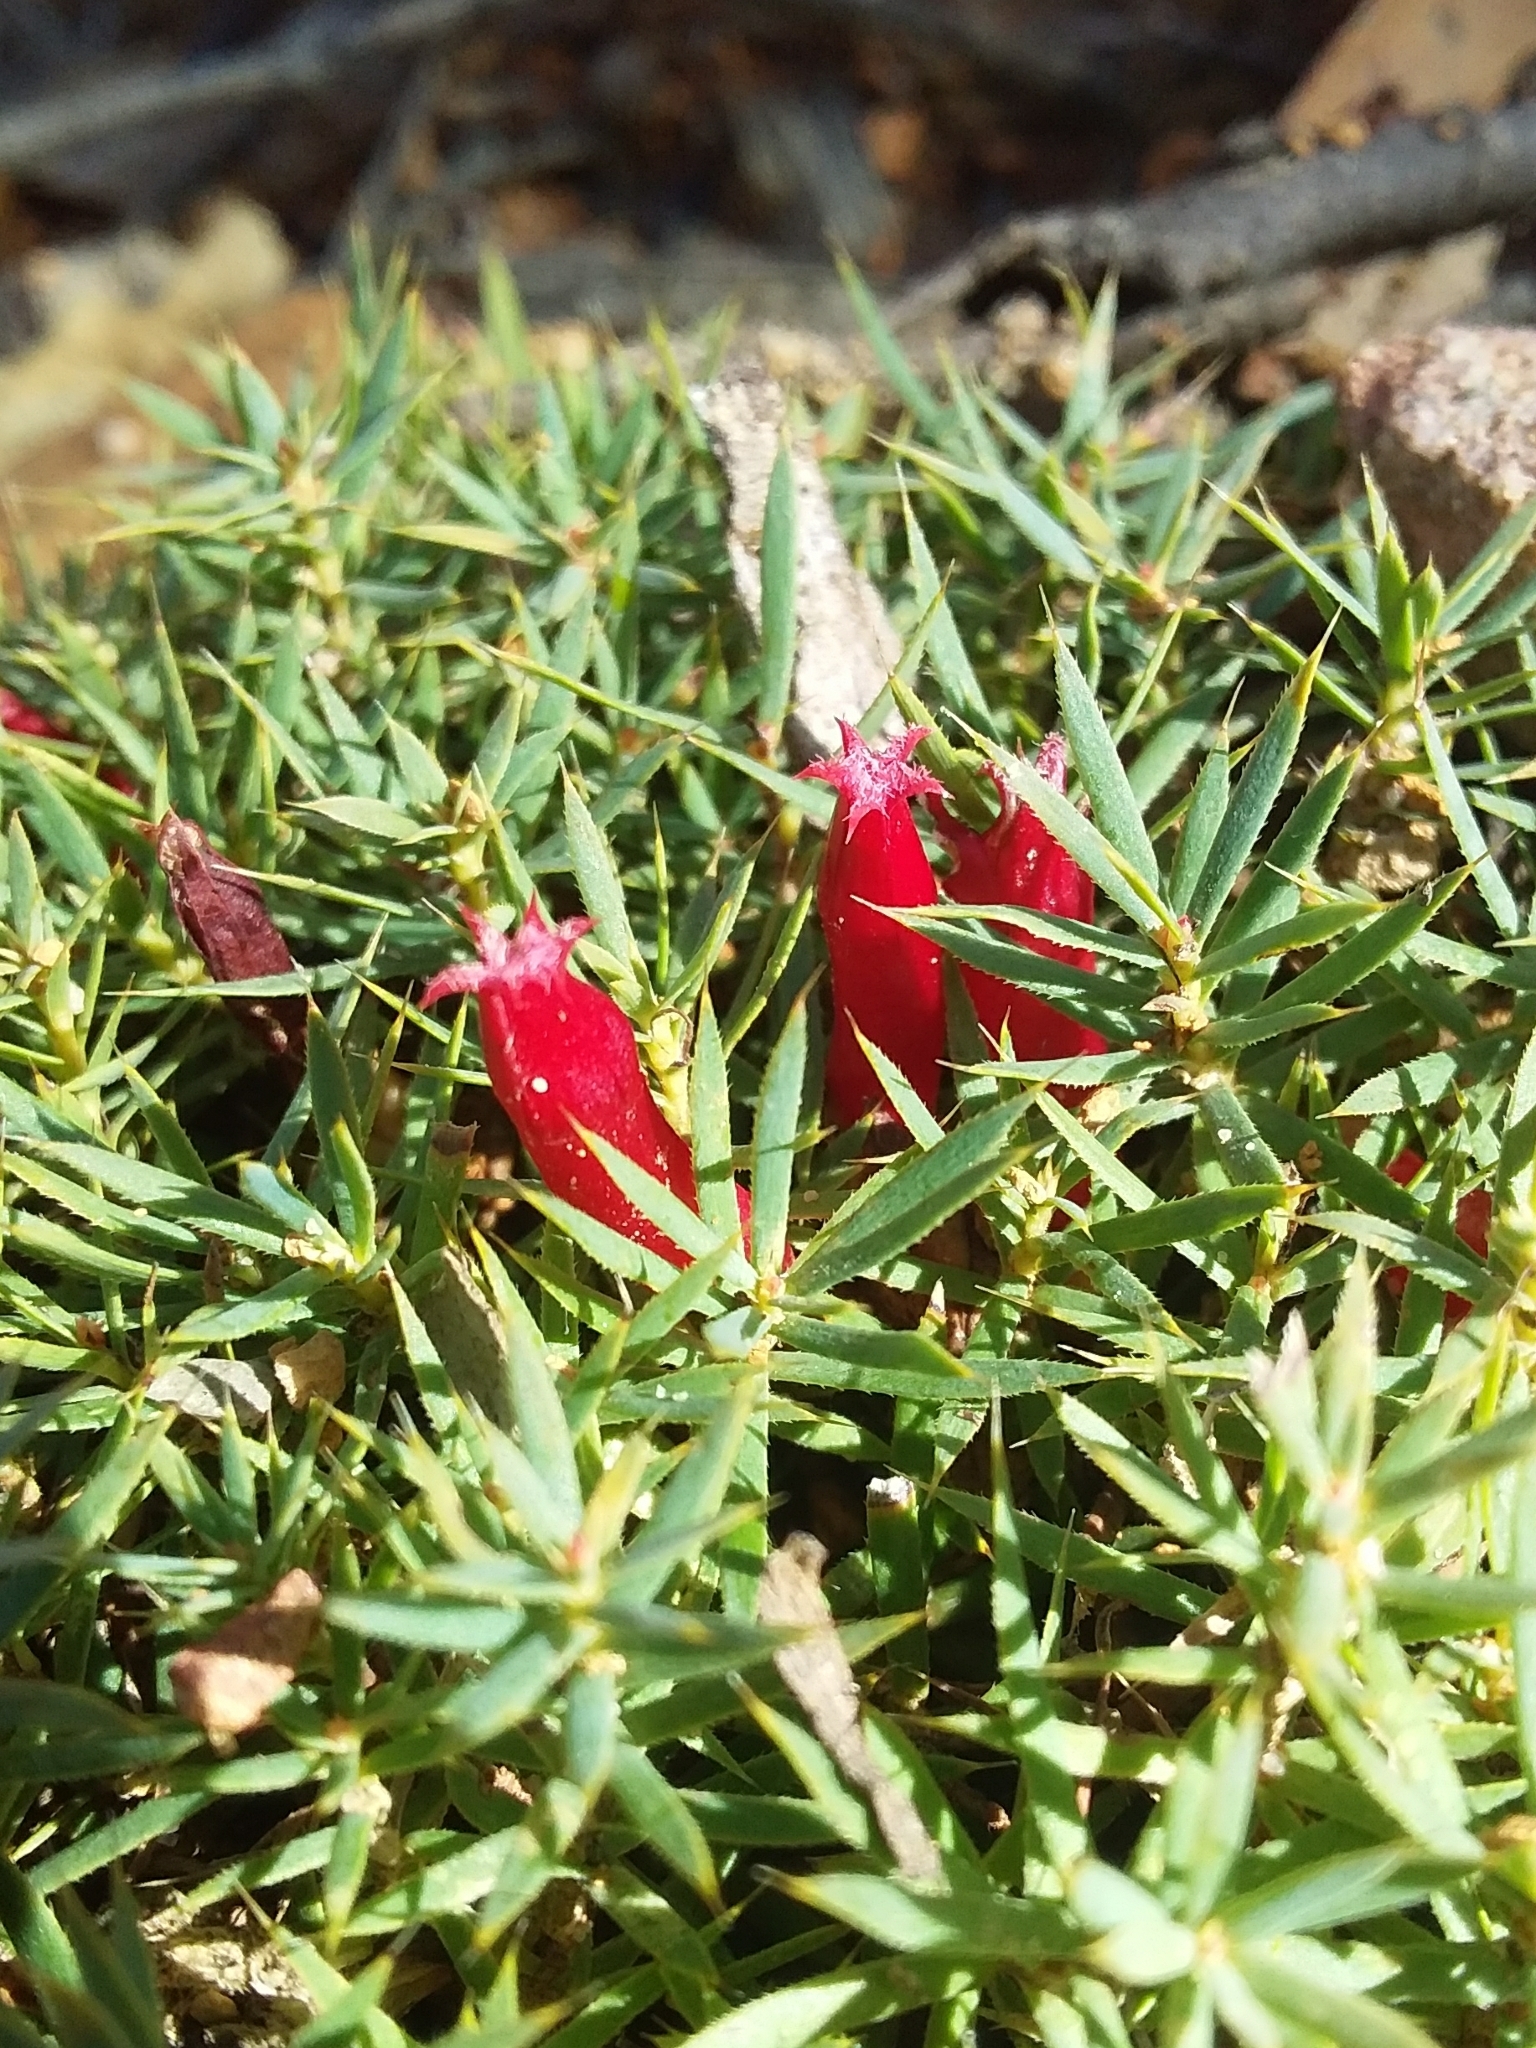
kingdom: Plantae
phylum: Tracheophyta
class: Magnoliopsida
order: Ericales
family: Ericaceae
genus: Styphelia
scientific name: Styphelia humifusa
